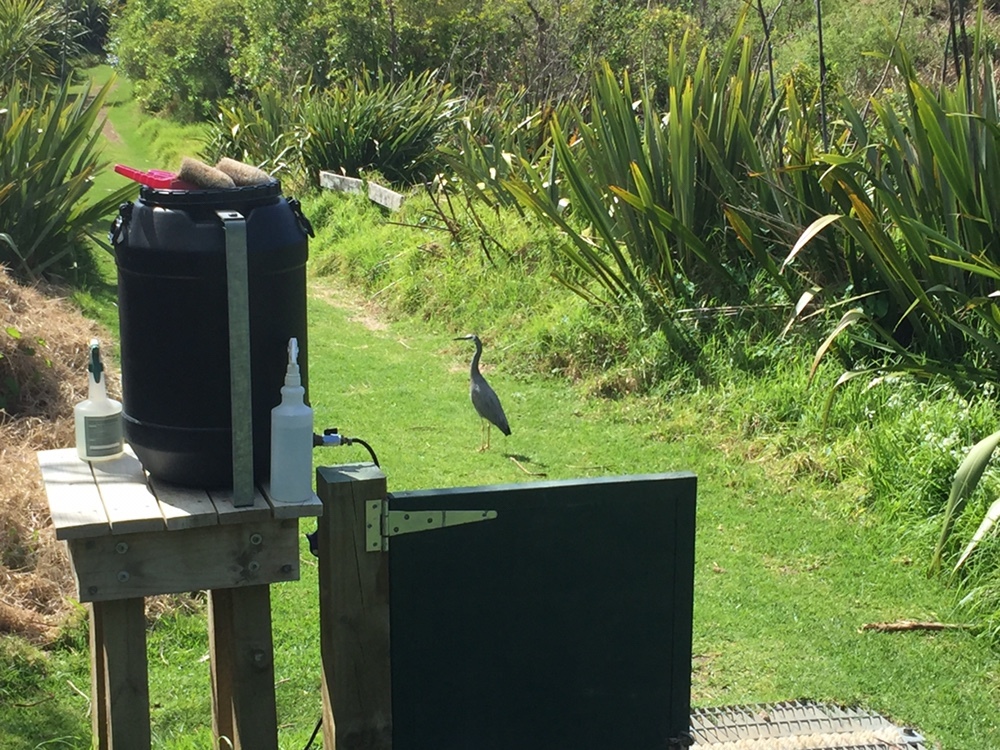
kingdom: Animalia
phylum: Chordata
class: Aves
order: Pelecaniformes
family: Ardeidae
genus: Egretta
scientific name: Egretta novaehollandiae
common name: White-faced heron
